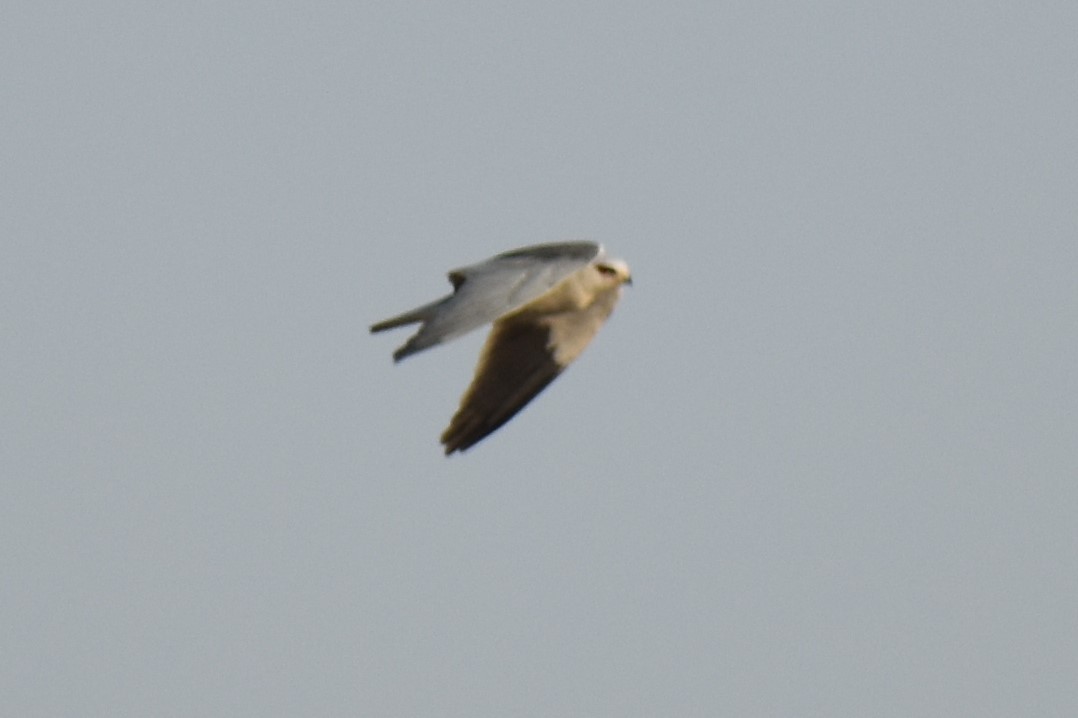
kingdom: Animalia
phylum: Chordata
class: Aves
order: Accipitriformes
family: Accipitridae
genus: Elanus
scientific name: Elanus caeruleus
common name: Black-winged kite
